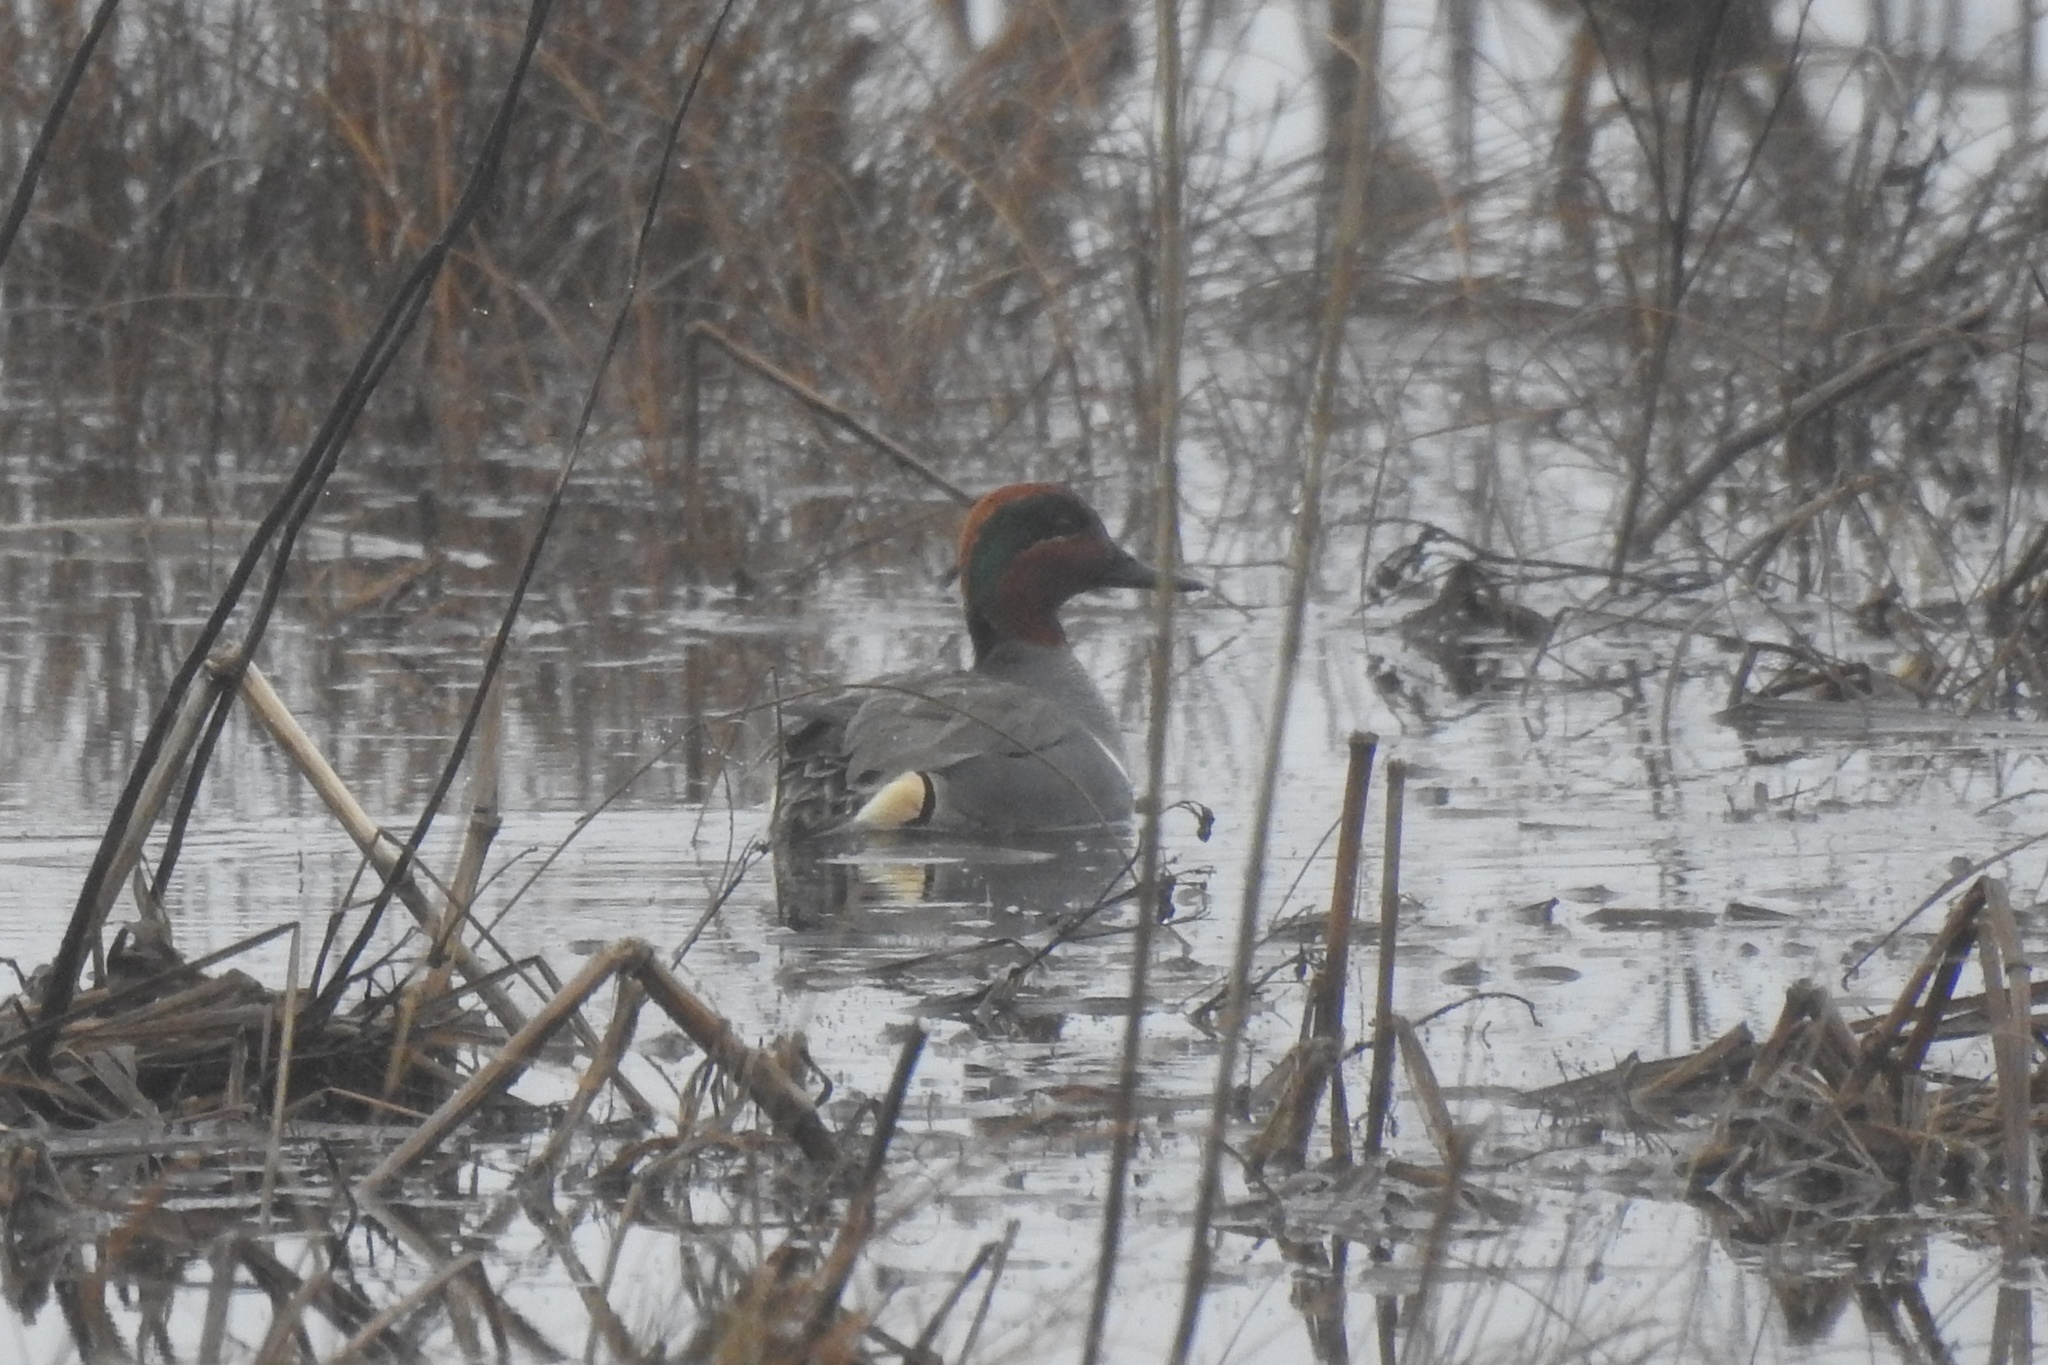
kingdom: Animalia
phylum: Chordata
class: Aves
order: Anseriformes
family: Anatidae
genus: Anas
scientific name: Anas crecca
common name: Eurasian teal
